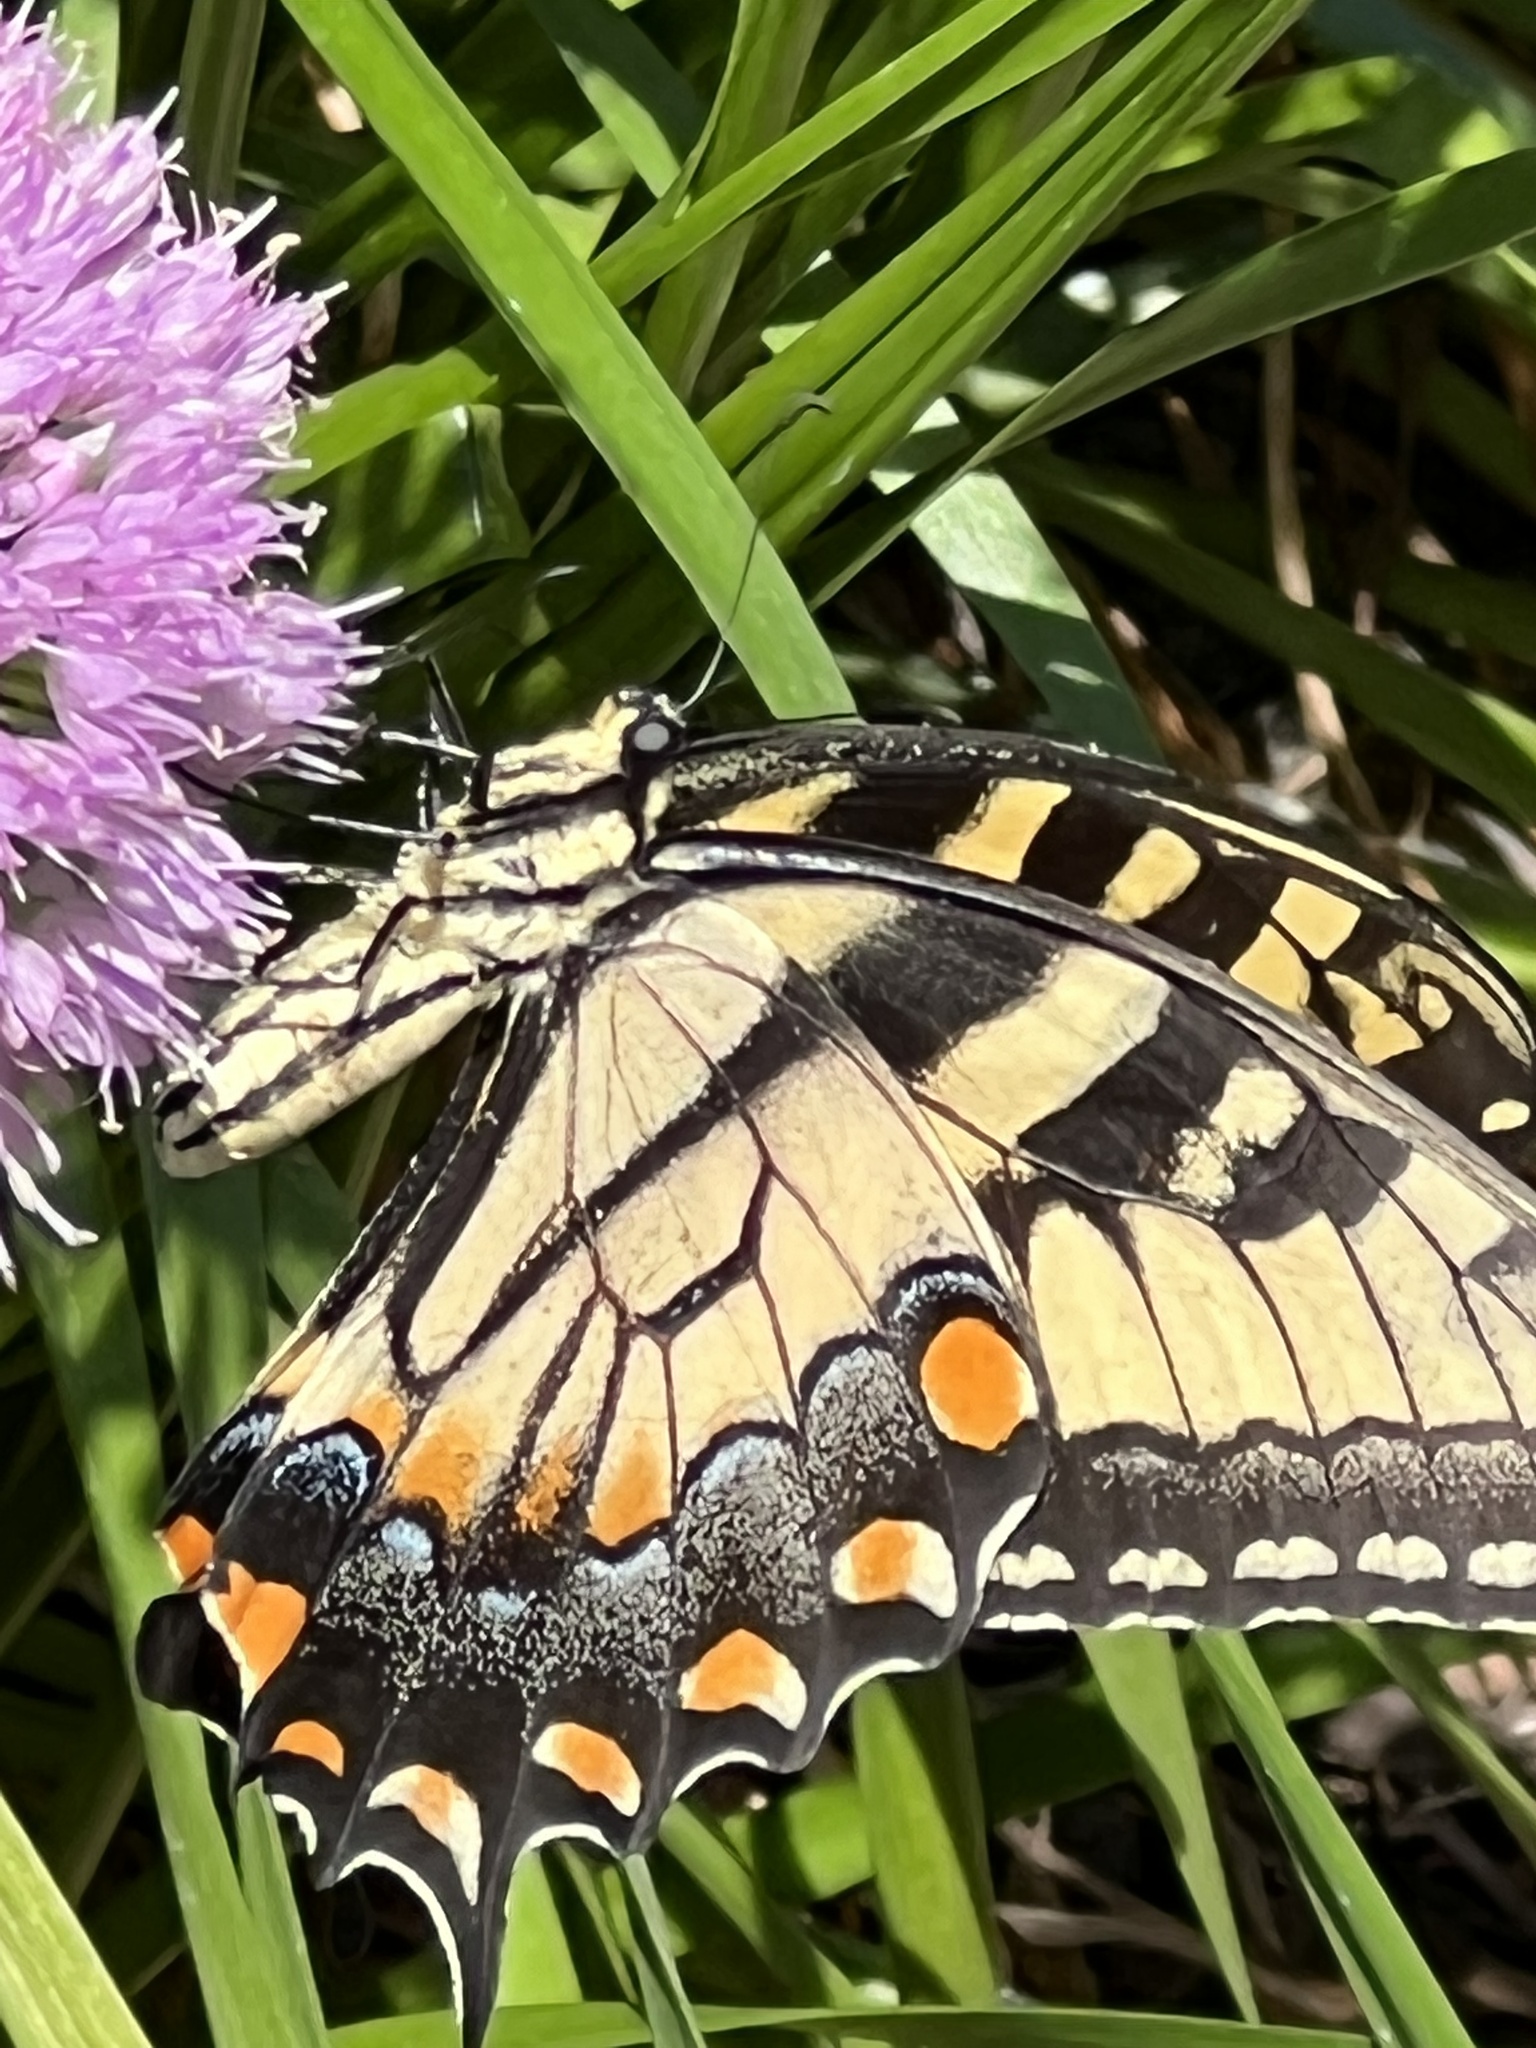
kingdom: Animalia
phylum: Arthropoda
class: Insecta
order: Lepidoptera
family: Papilionidae
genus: Papilio
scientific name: Papilio glaucus
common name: Tiger swallowtail
